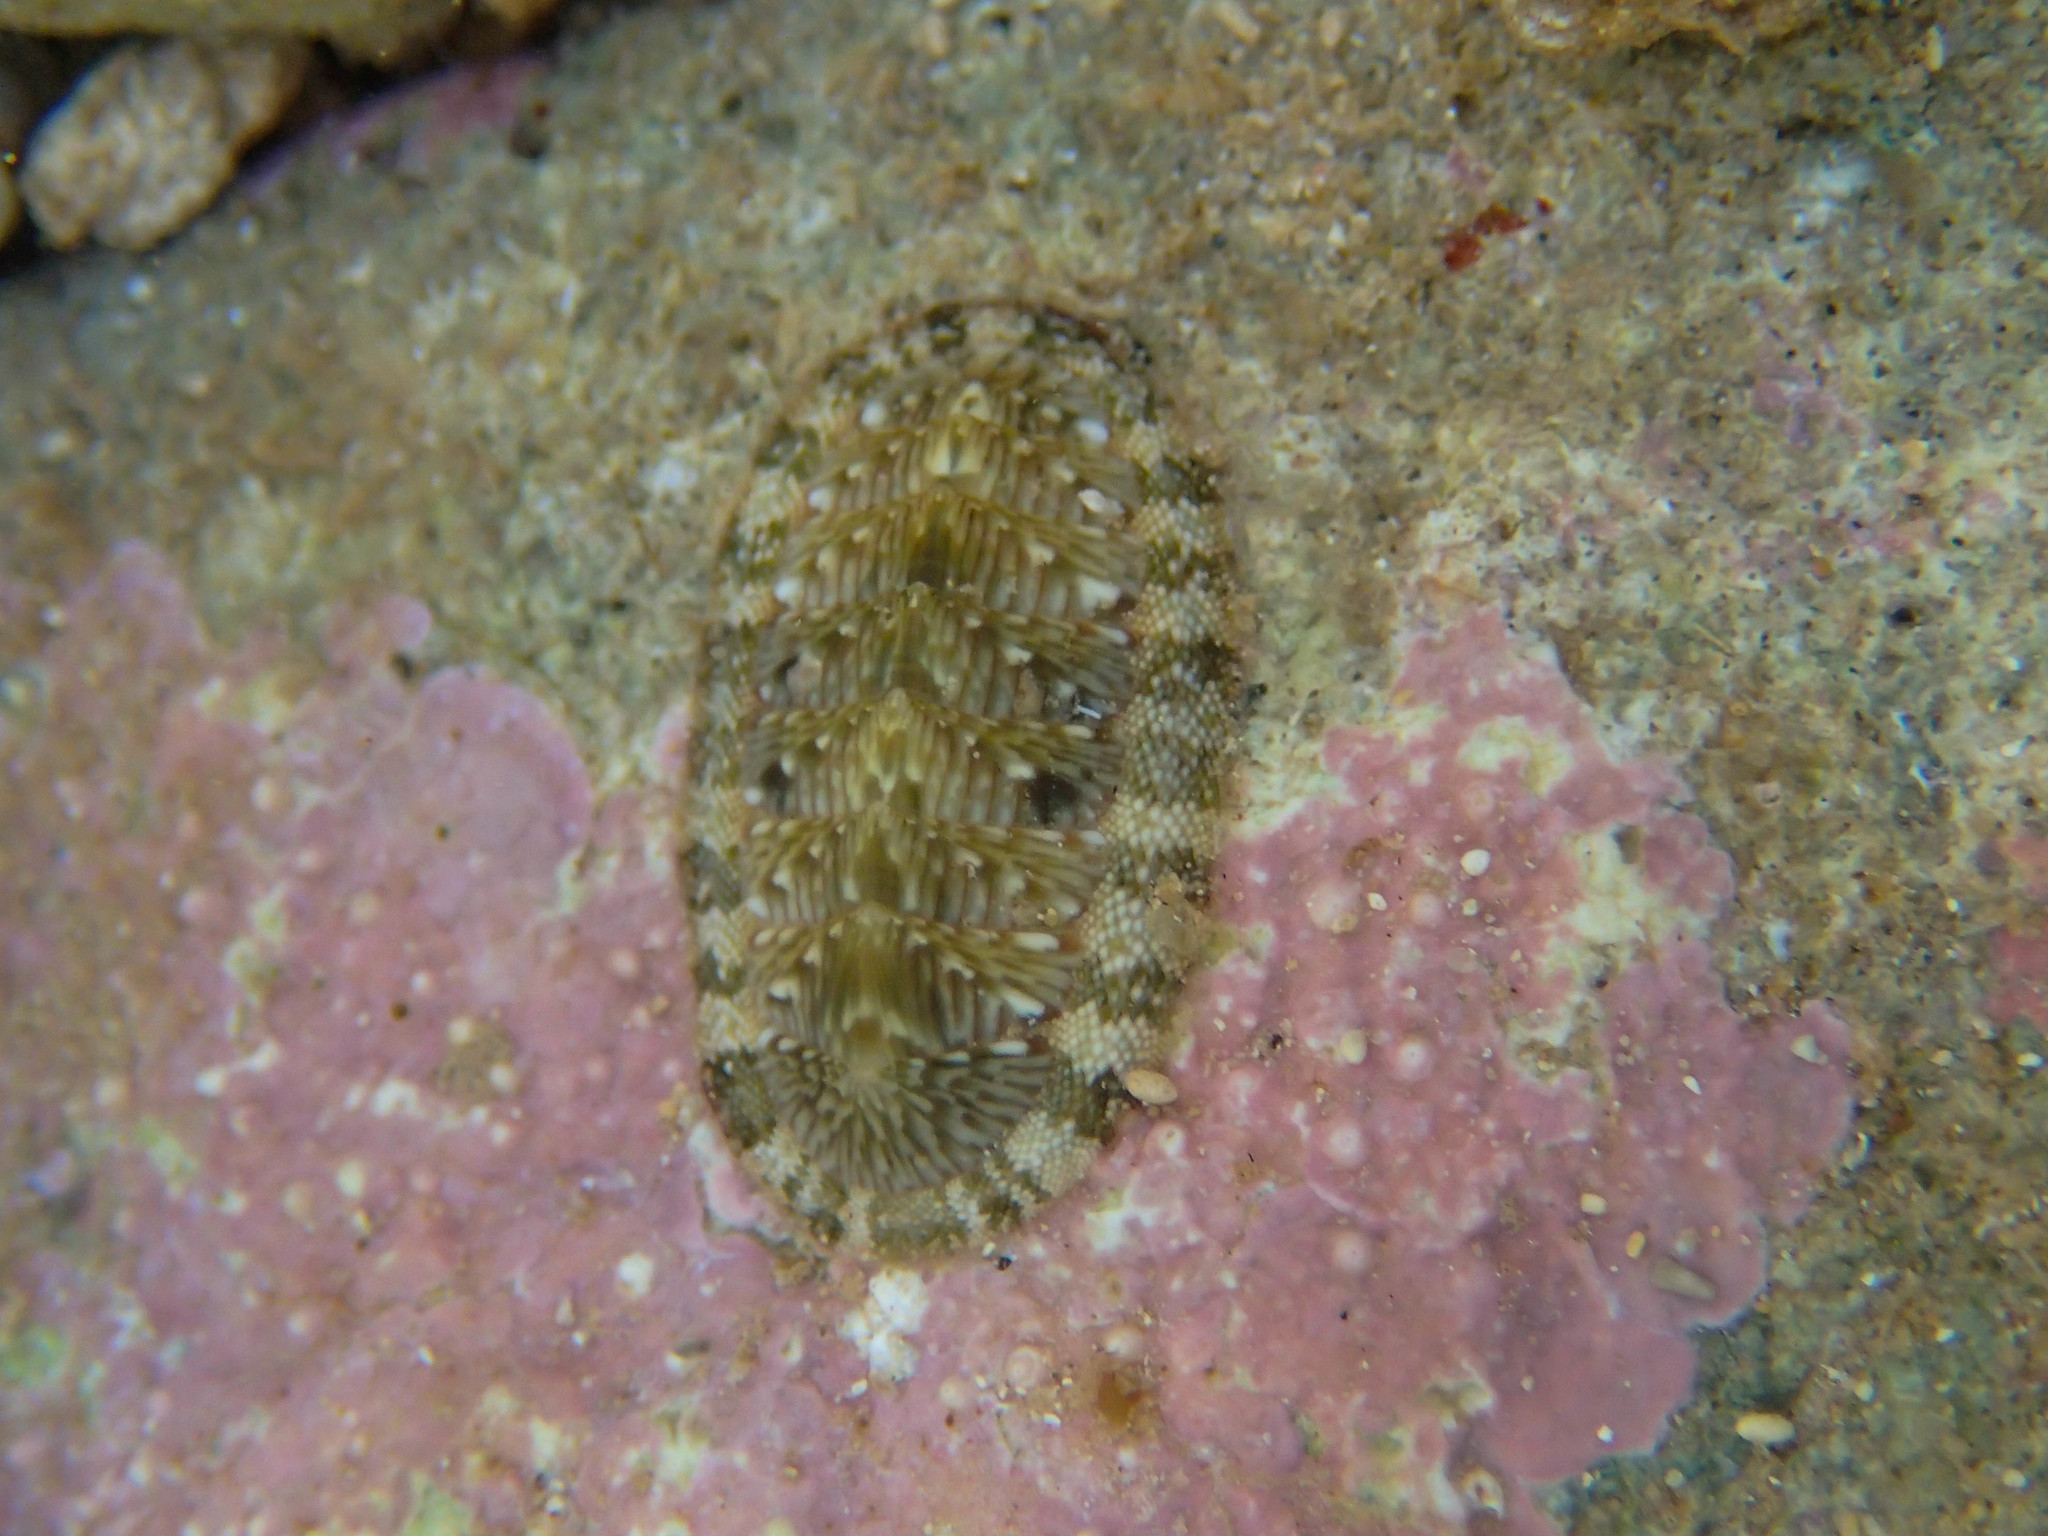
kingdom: Animalia
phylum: Mollusca
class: Polyplacophora
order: Chitonida
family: Chitonidae
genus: Rhyssoplax
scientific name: Rhyssoplax olivacea
